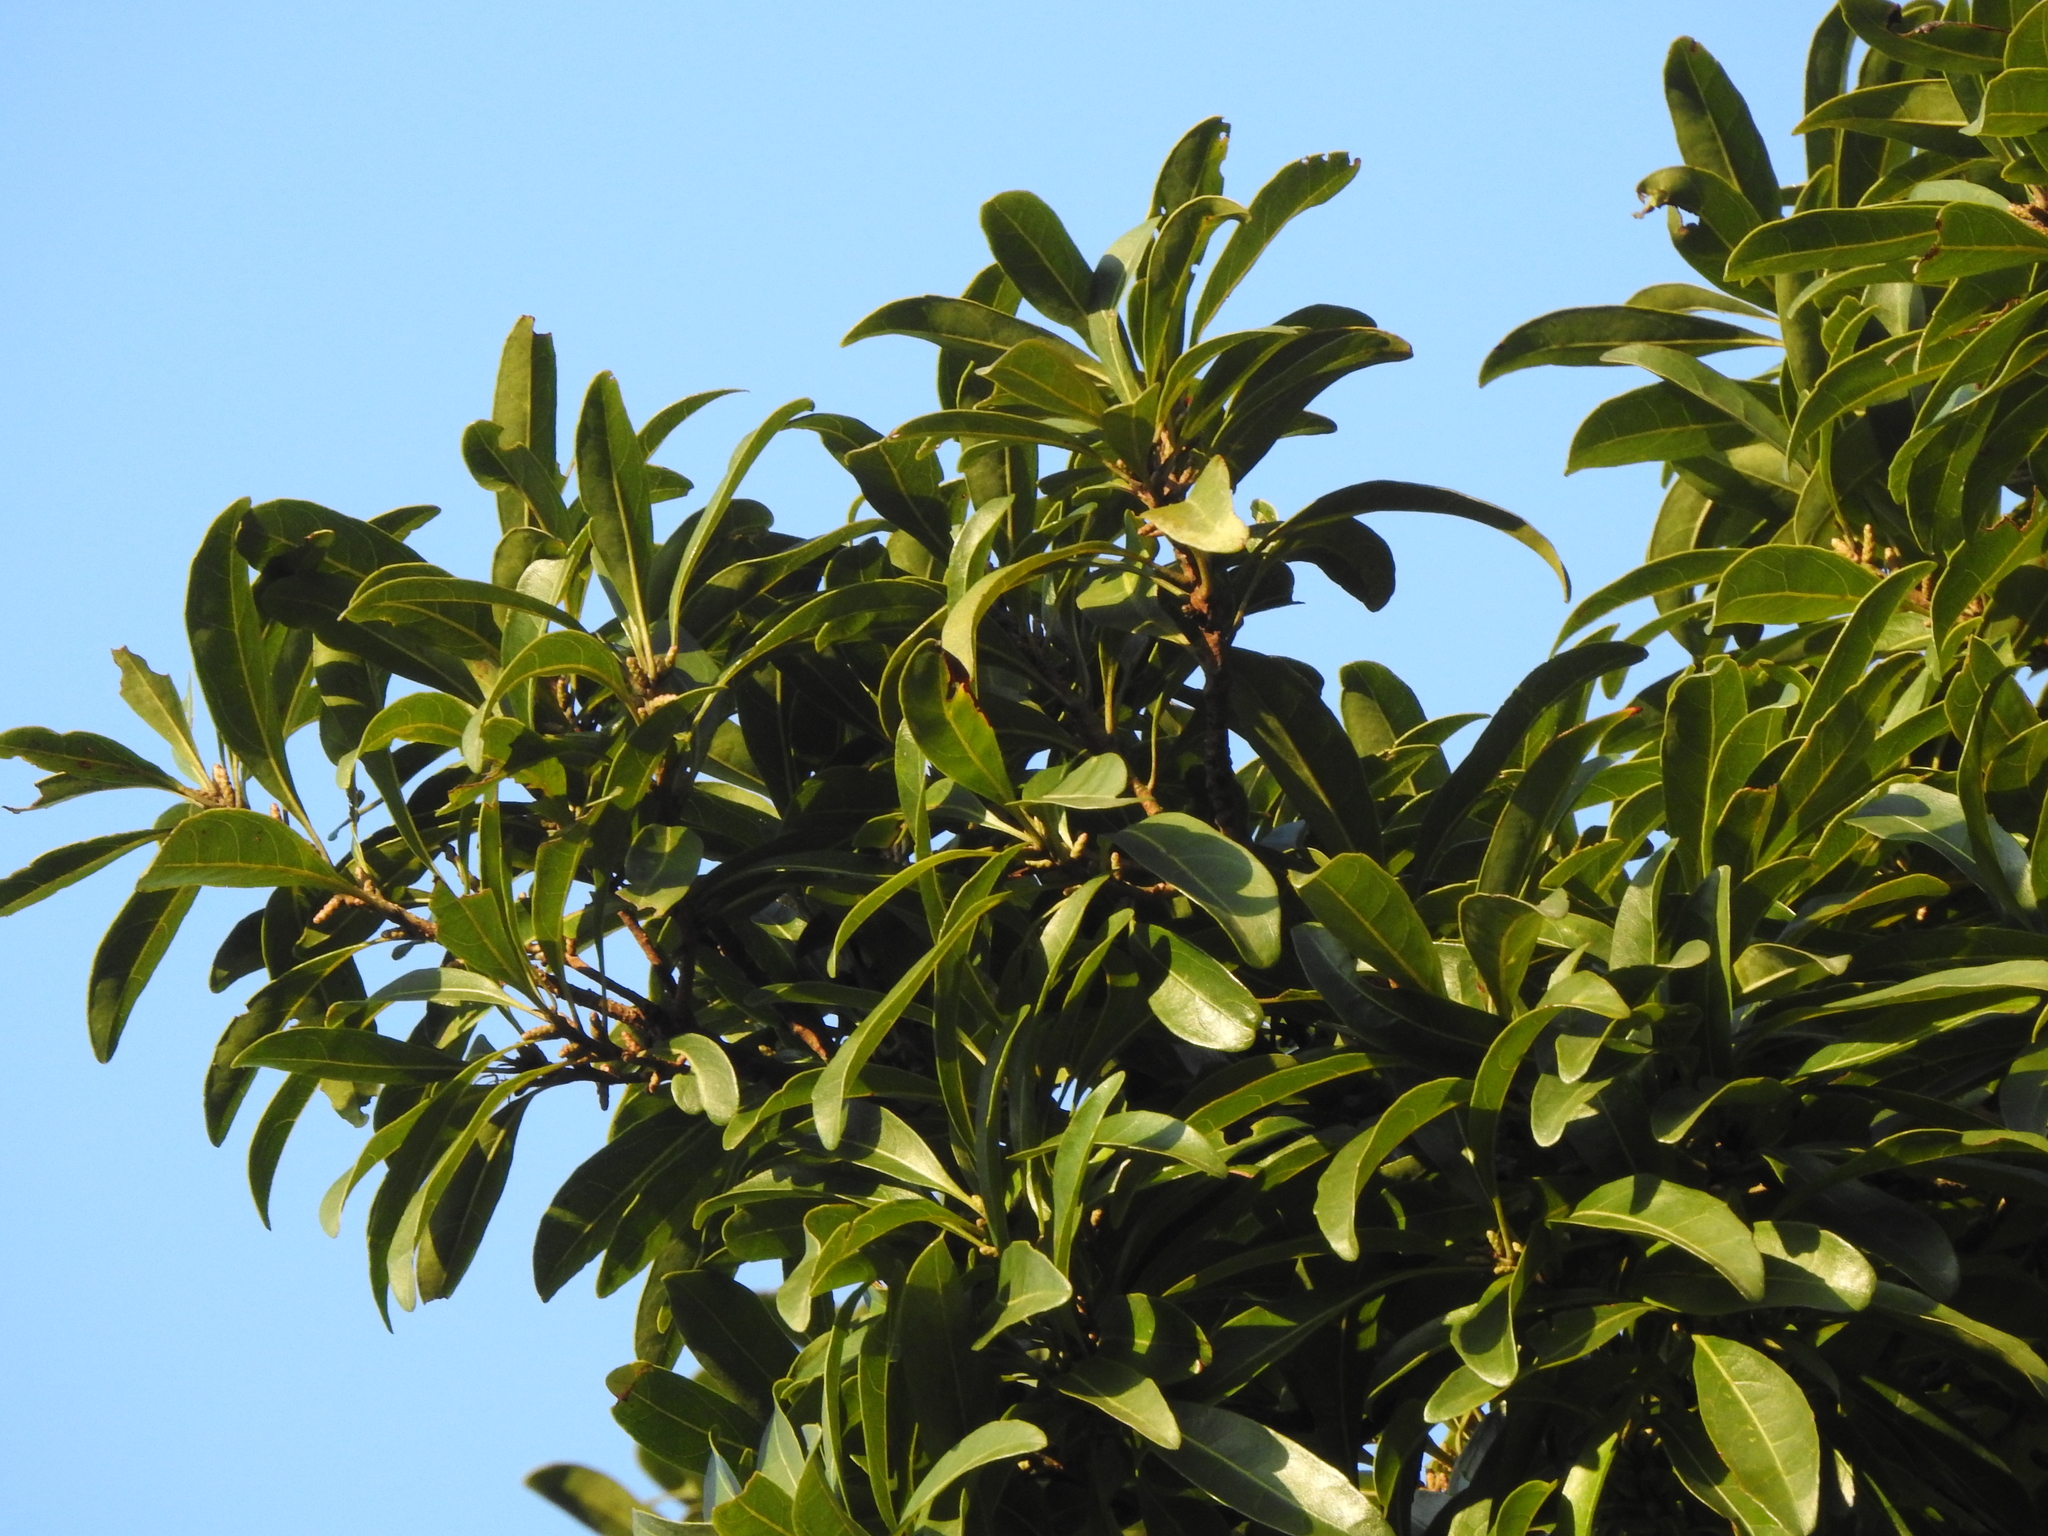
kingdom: Plantae
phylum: Tracheophyta
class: Magnoliopsida
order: Ericales
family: Symplocaceae
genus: Symplocos
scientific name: Symplocos wikstroemiifolia
